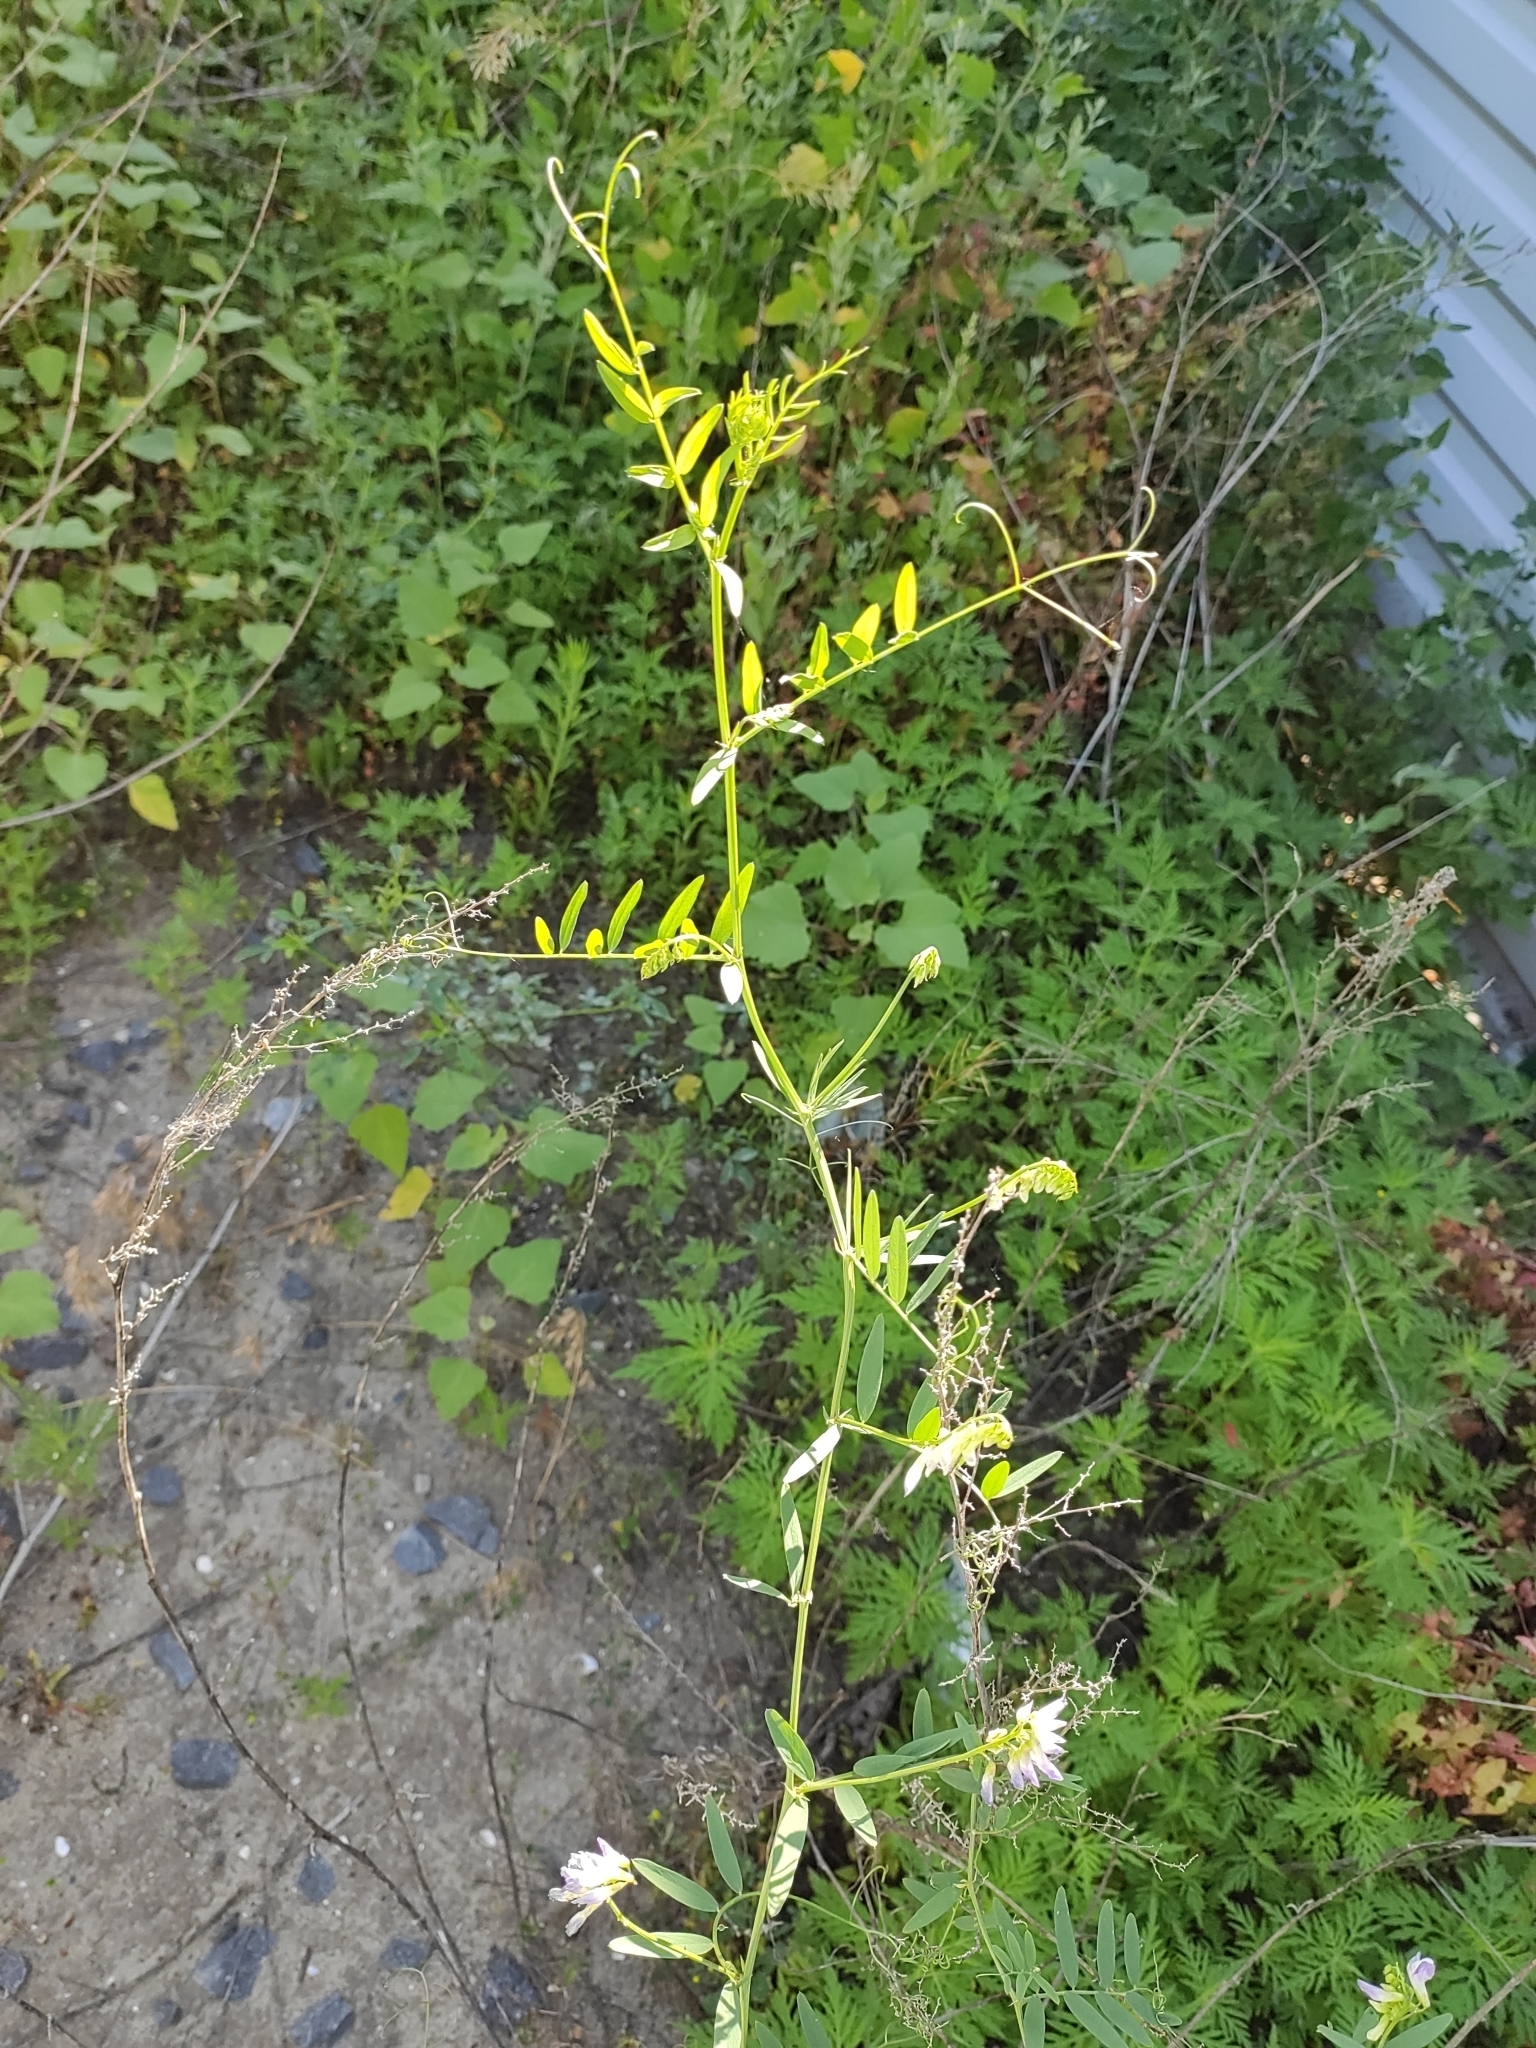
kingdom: Plantae
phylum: Tracheophyta
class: Magnoliopsida
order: Fabales
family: Fabaceae
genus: Vicia
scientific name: Vicia biennis
